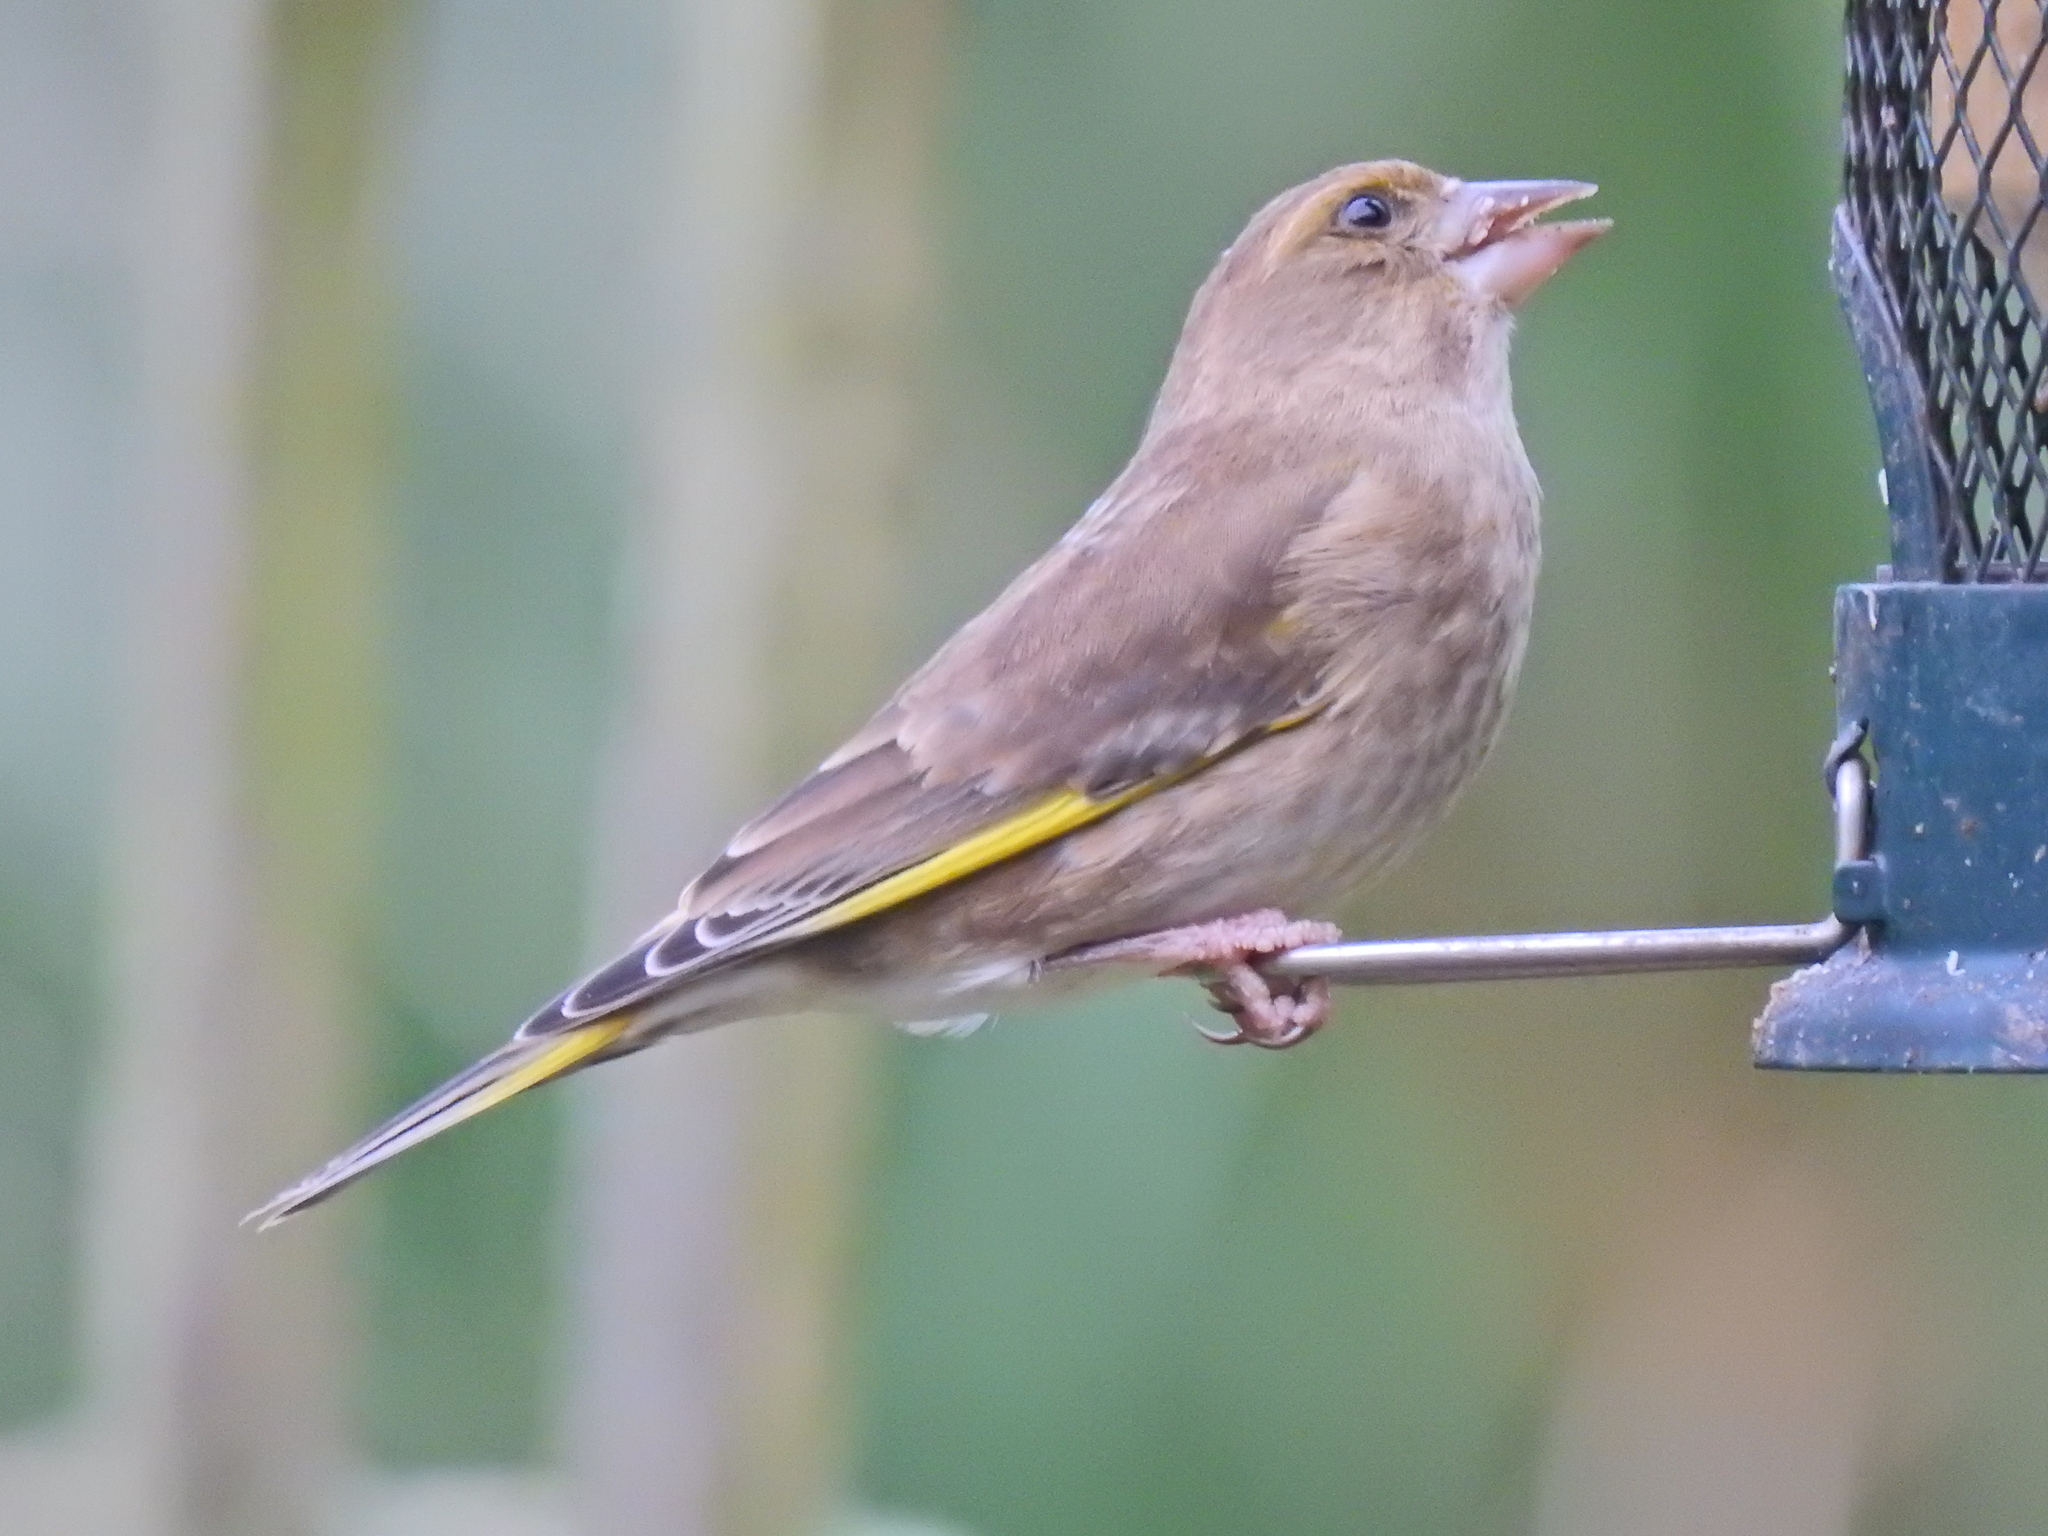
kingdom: Plantae
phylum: Tracheophyta
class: Liliopsida
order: Poales
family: Poaceae
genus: Chloris
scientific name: Chloris chloris
